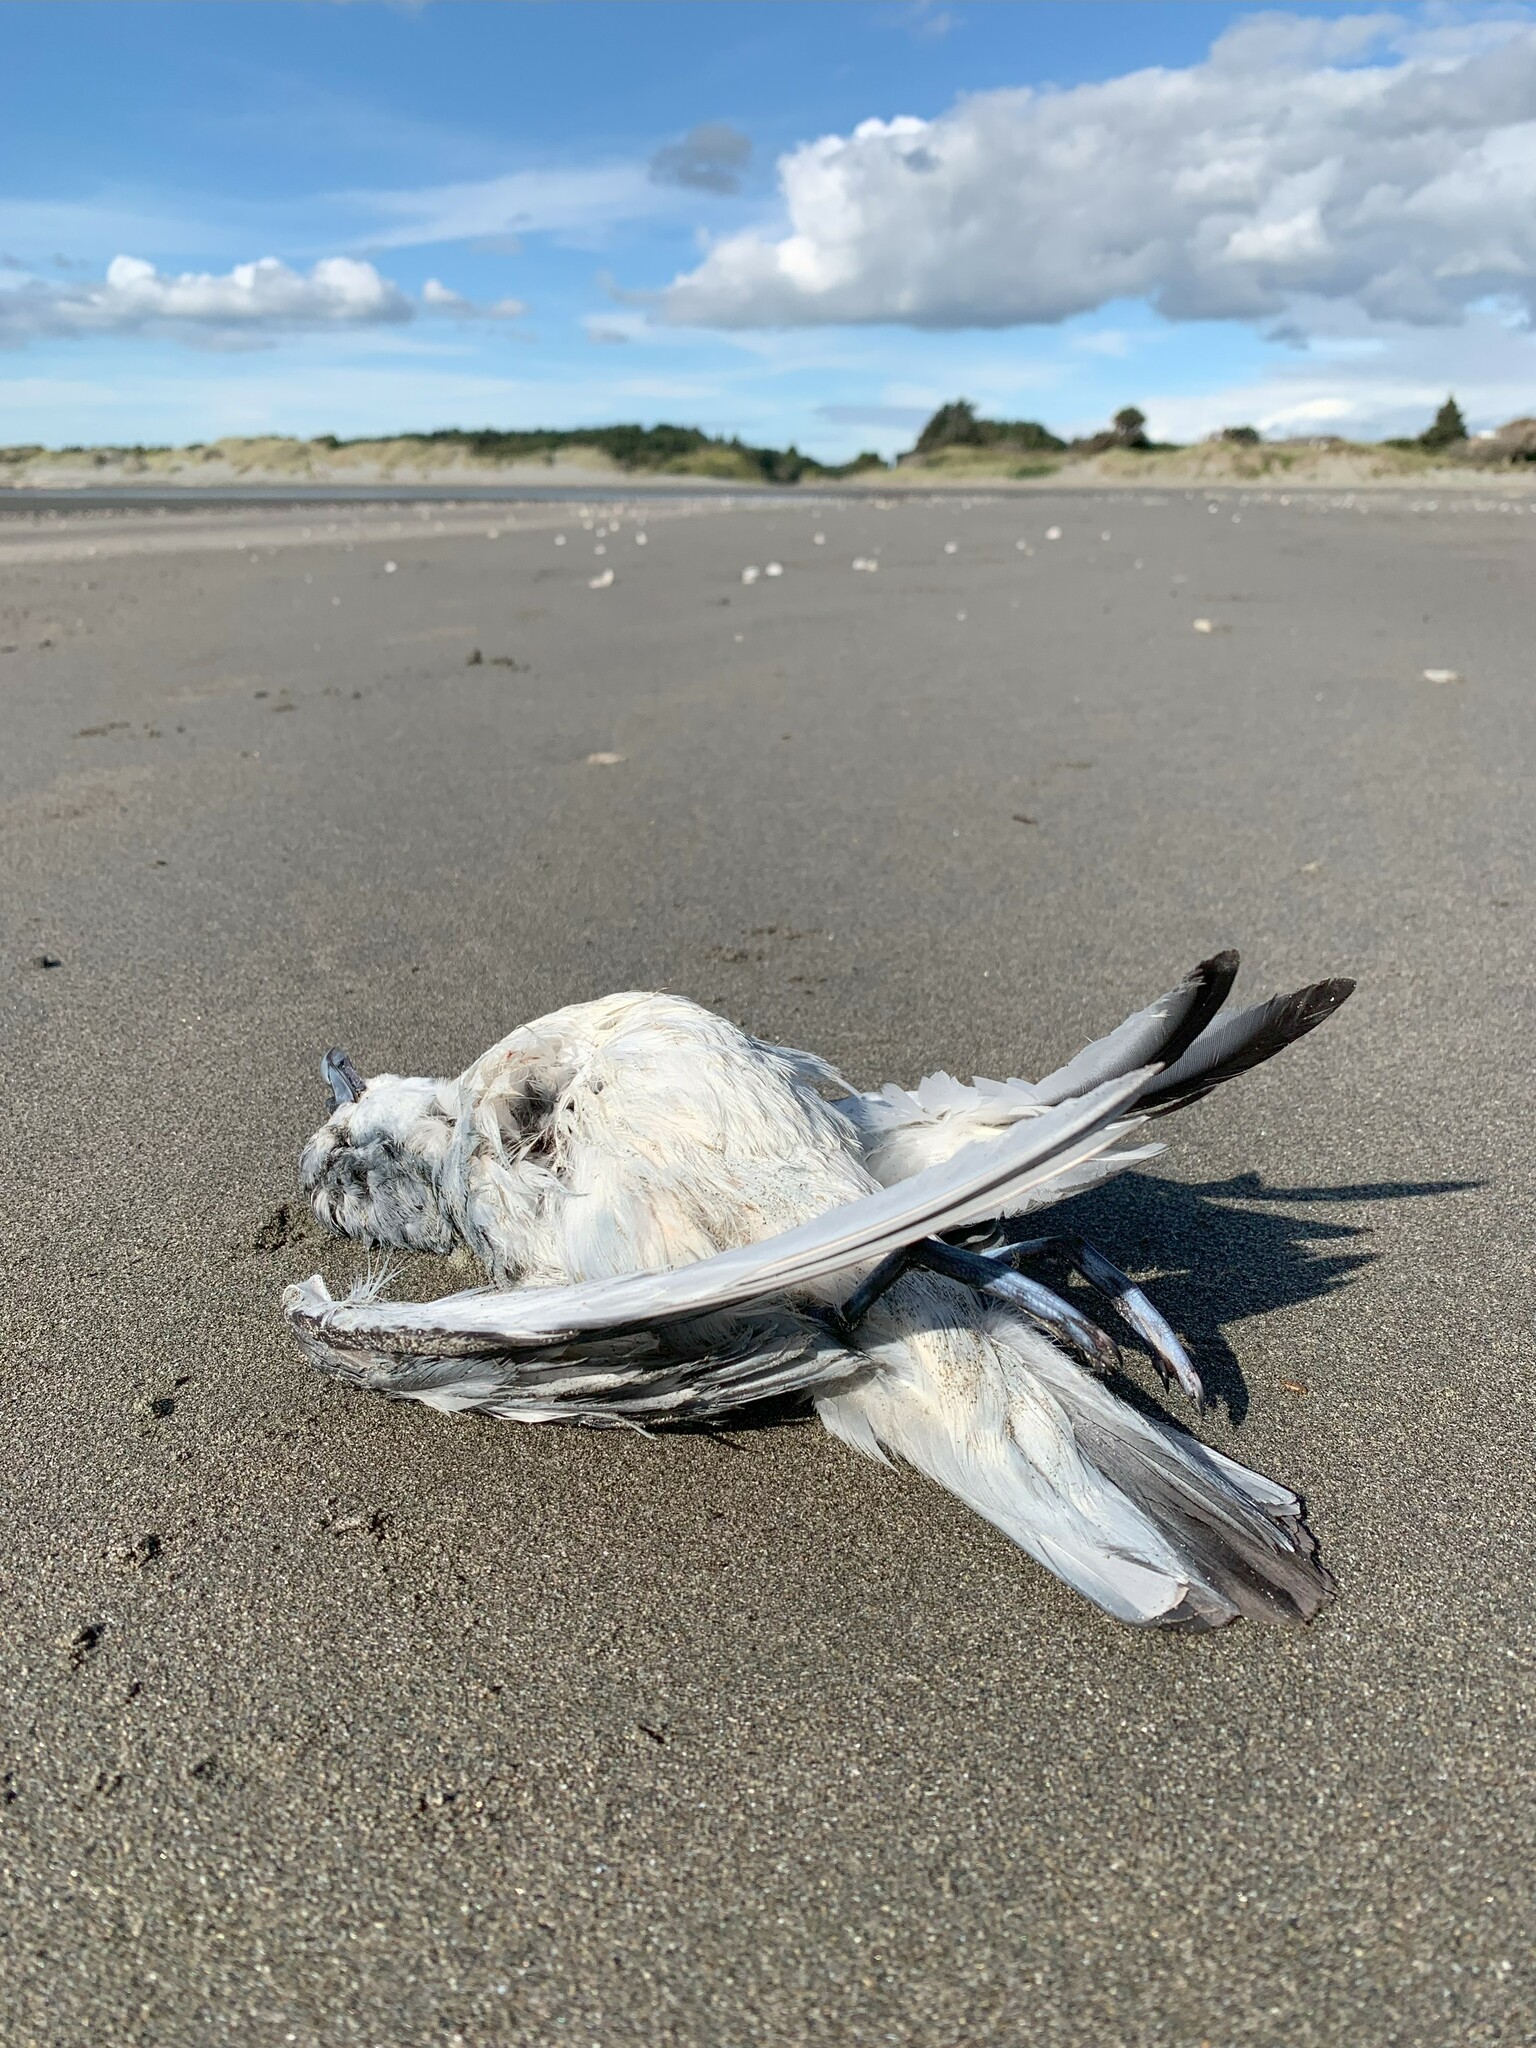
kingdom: Animalia
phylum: Chordata
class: Aves
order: Procellariiformes
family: Procellariidae
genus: Pachyptila
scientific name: Pachyptila turtur
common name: Fairy prion
